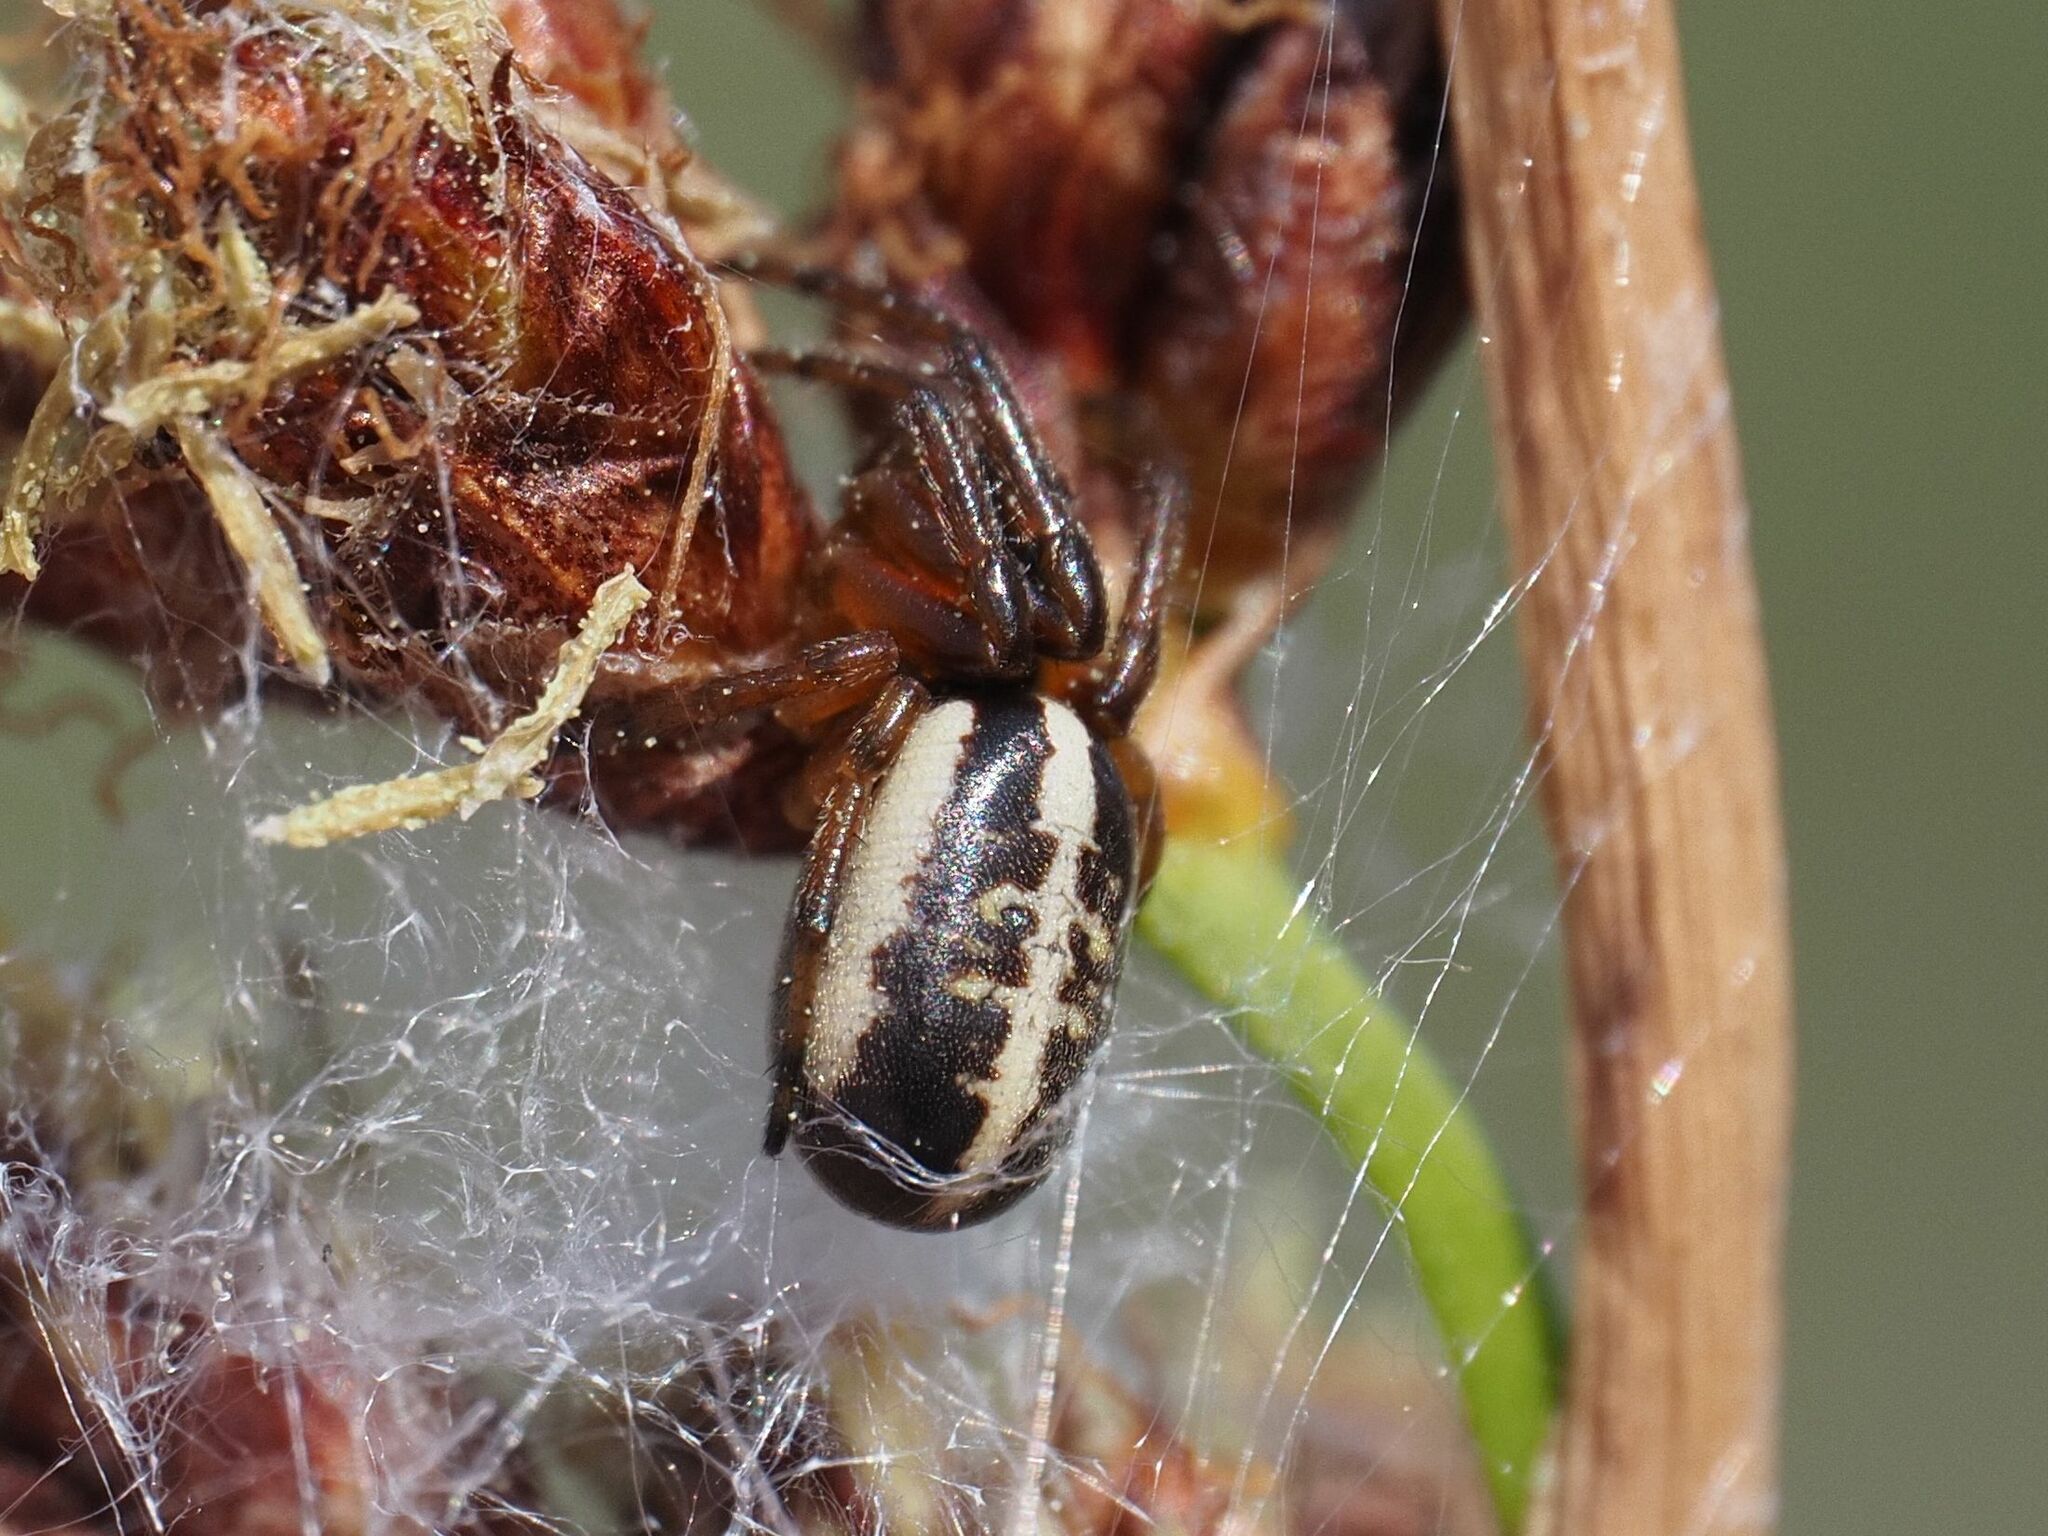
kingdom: Animalia
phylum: Arthropoda
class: Arachnida
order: Araneae
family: Araneidae
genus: Singa
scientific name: Singa nitidula
